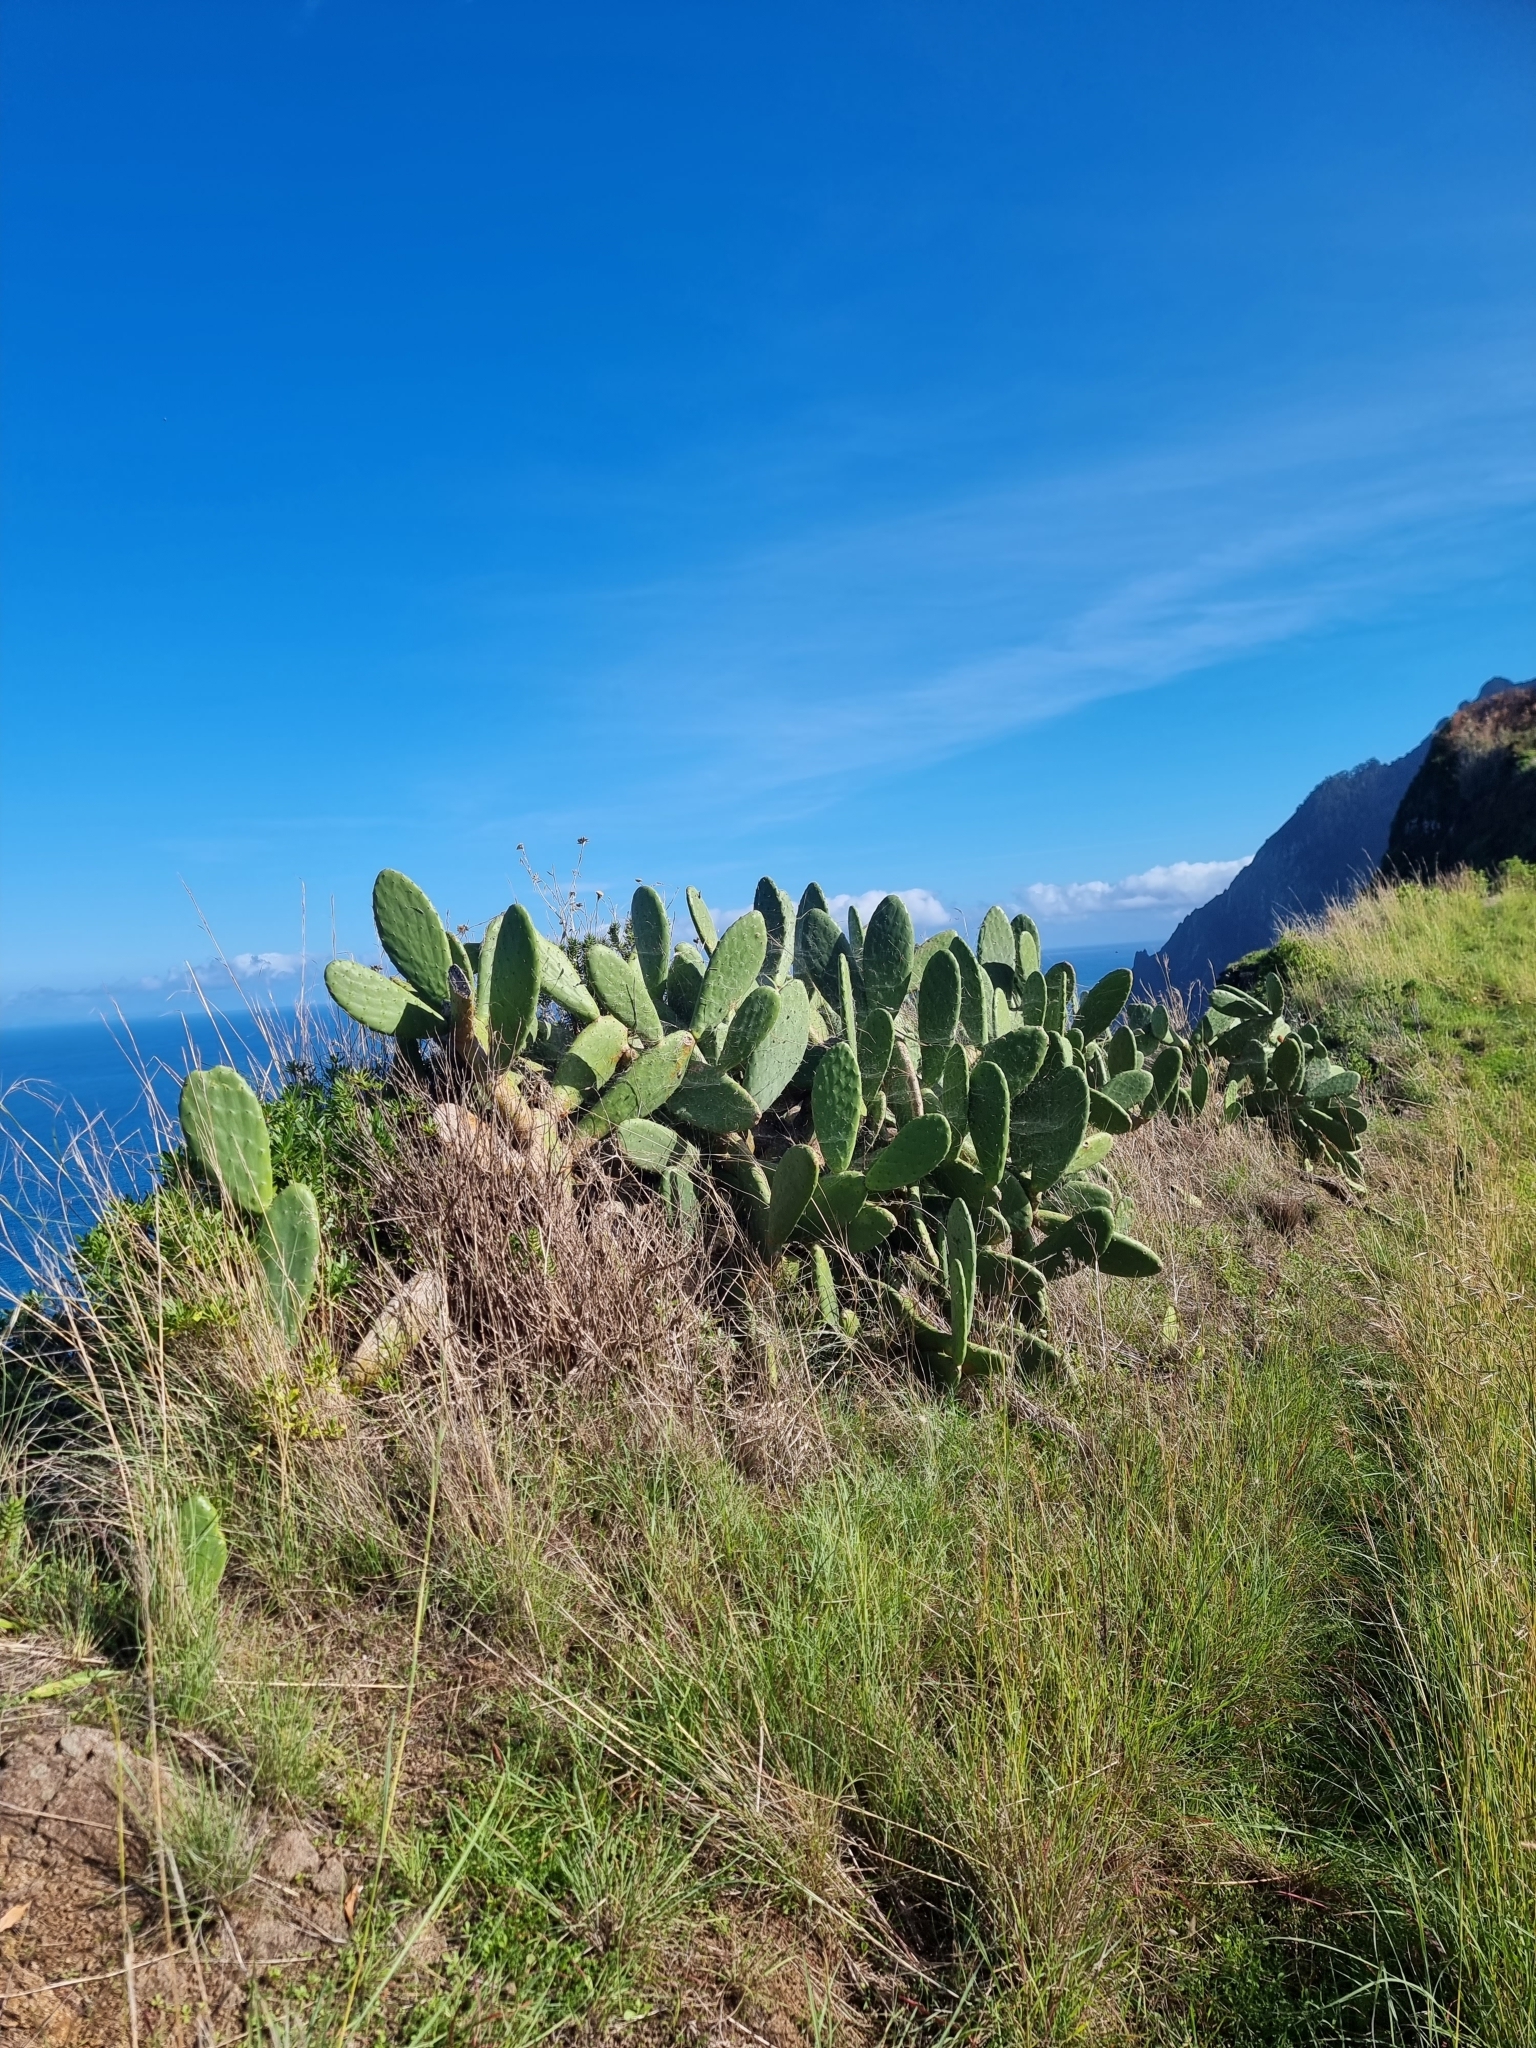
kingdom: Plantae
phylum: Tracheophyta
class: Magnoliopsida
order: Caryophyllales
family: Cactaceae
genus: Opuntia
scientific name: Opuntia ficus-indica
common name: Barbary fig
